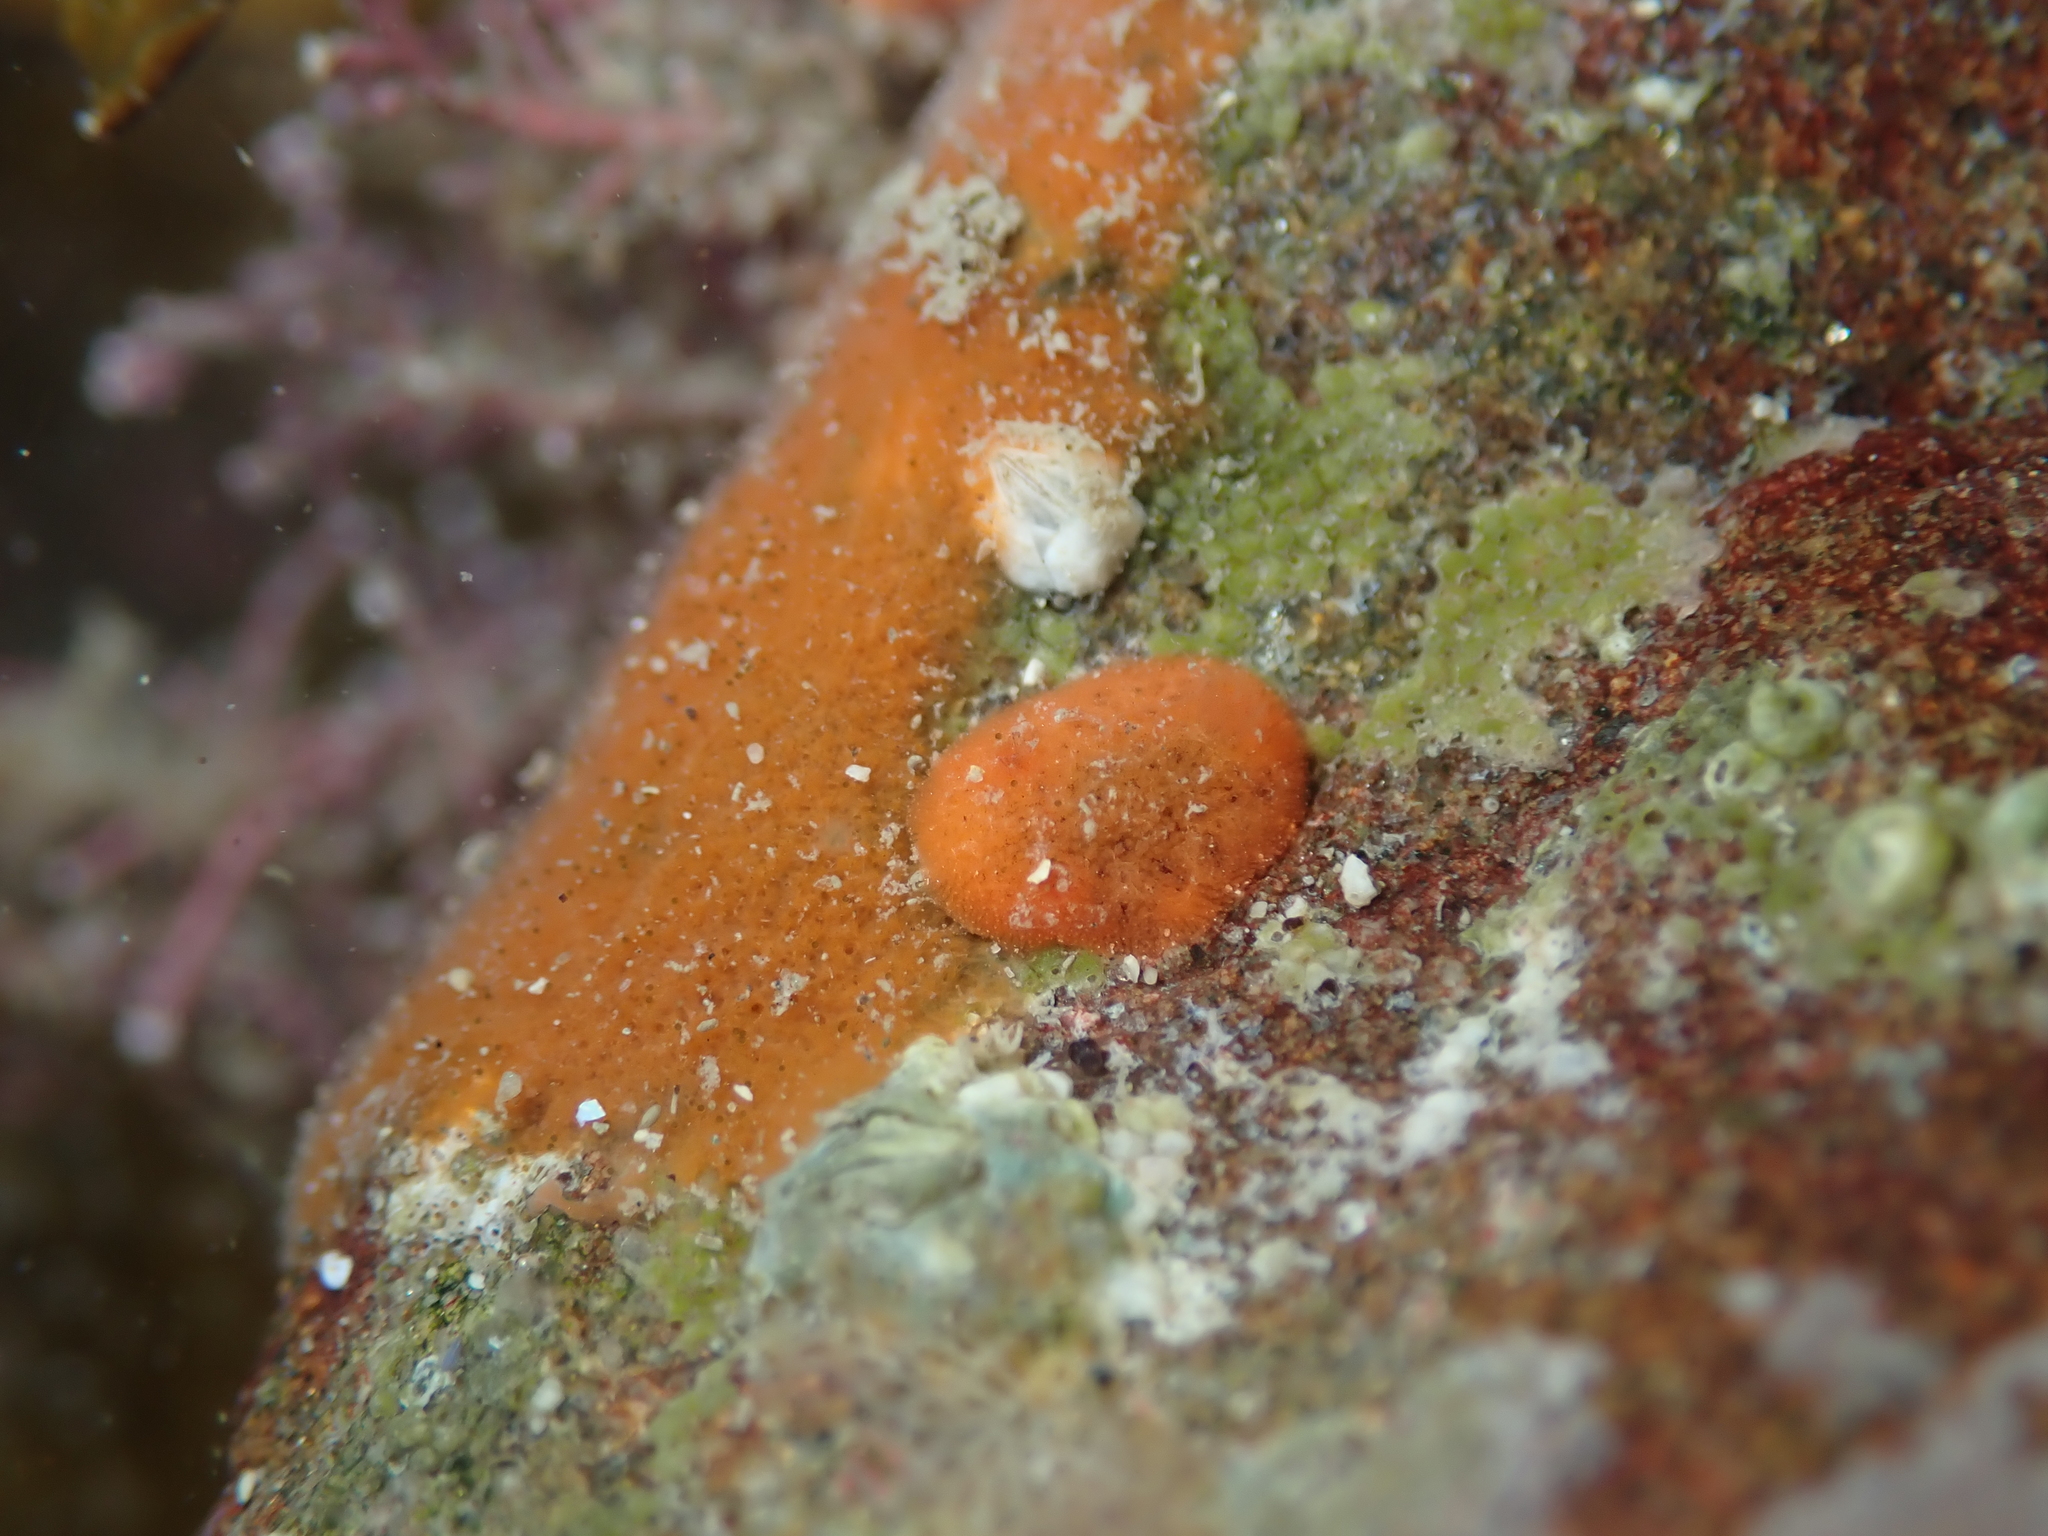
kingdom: Animalia
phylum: Mollusca
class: Gastropoda
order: Nudibranchia
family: Discodorididae
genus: Rostanga
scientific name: Rostanga muscula
